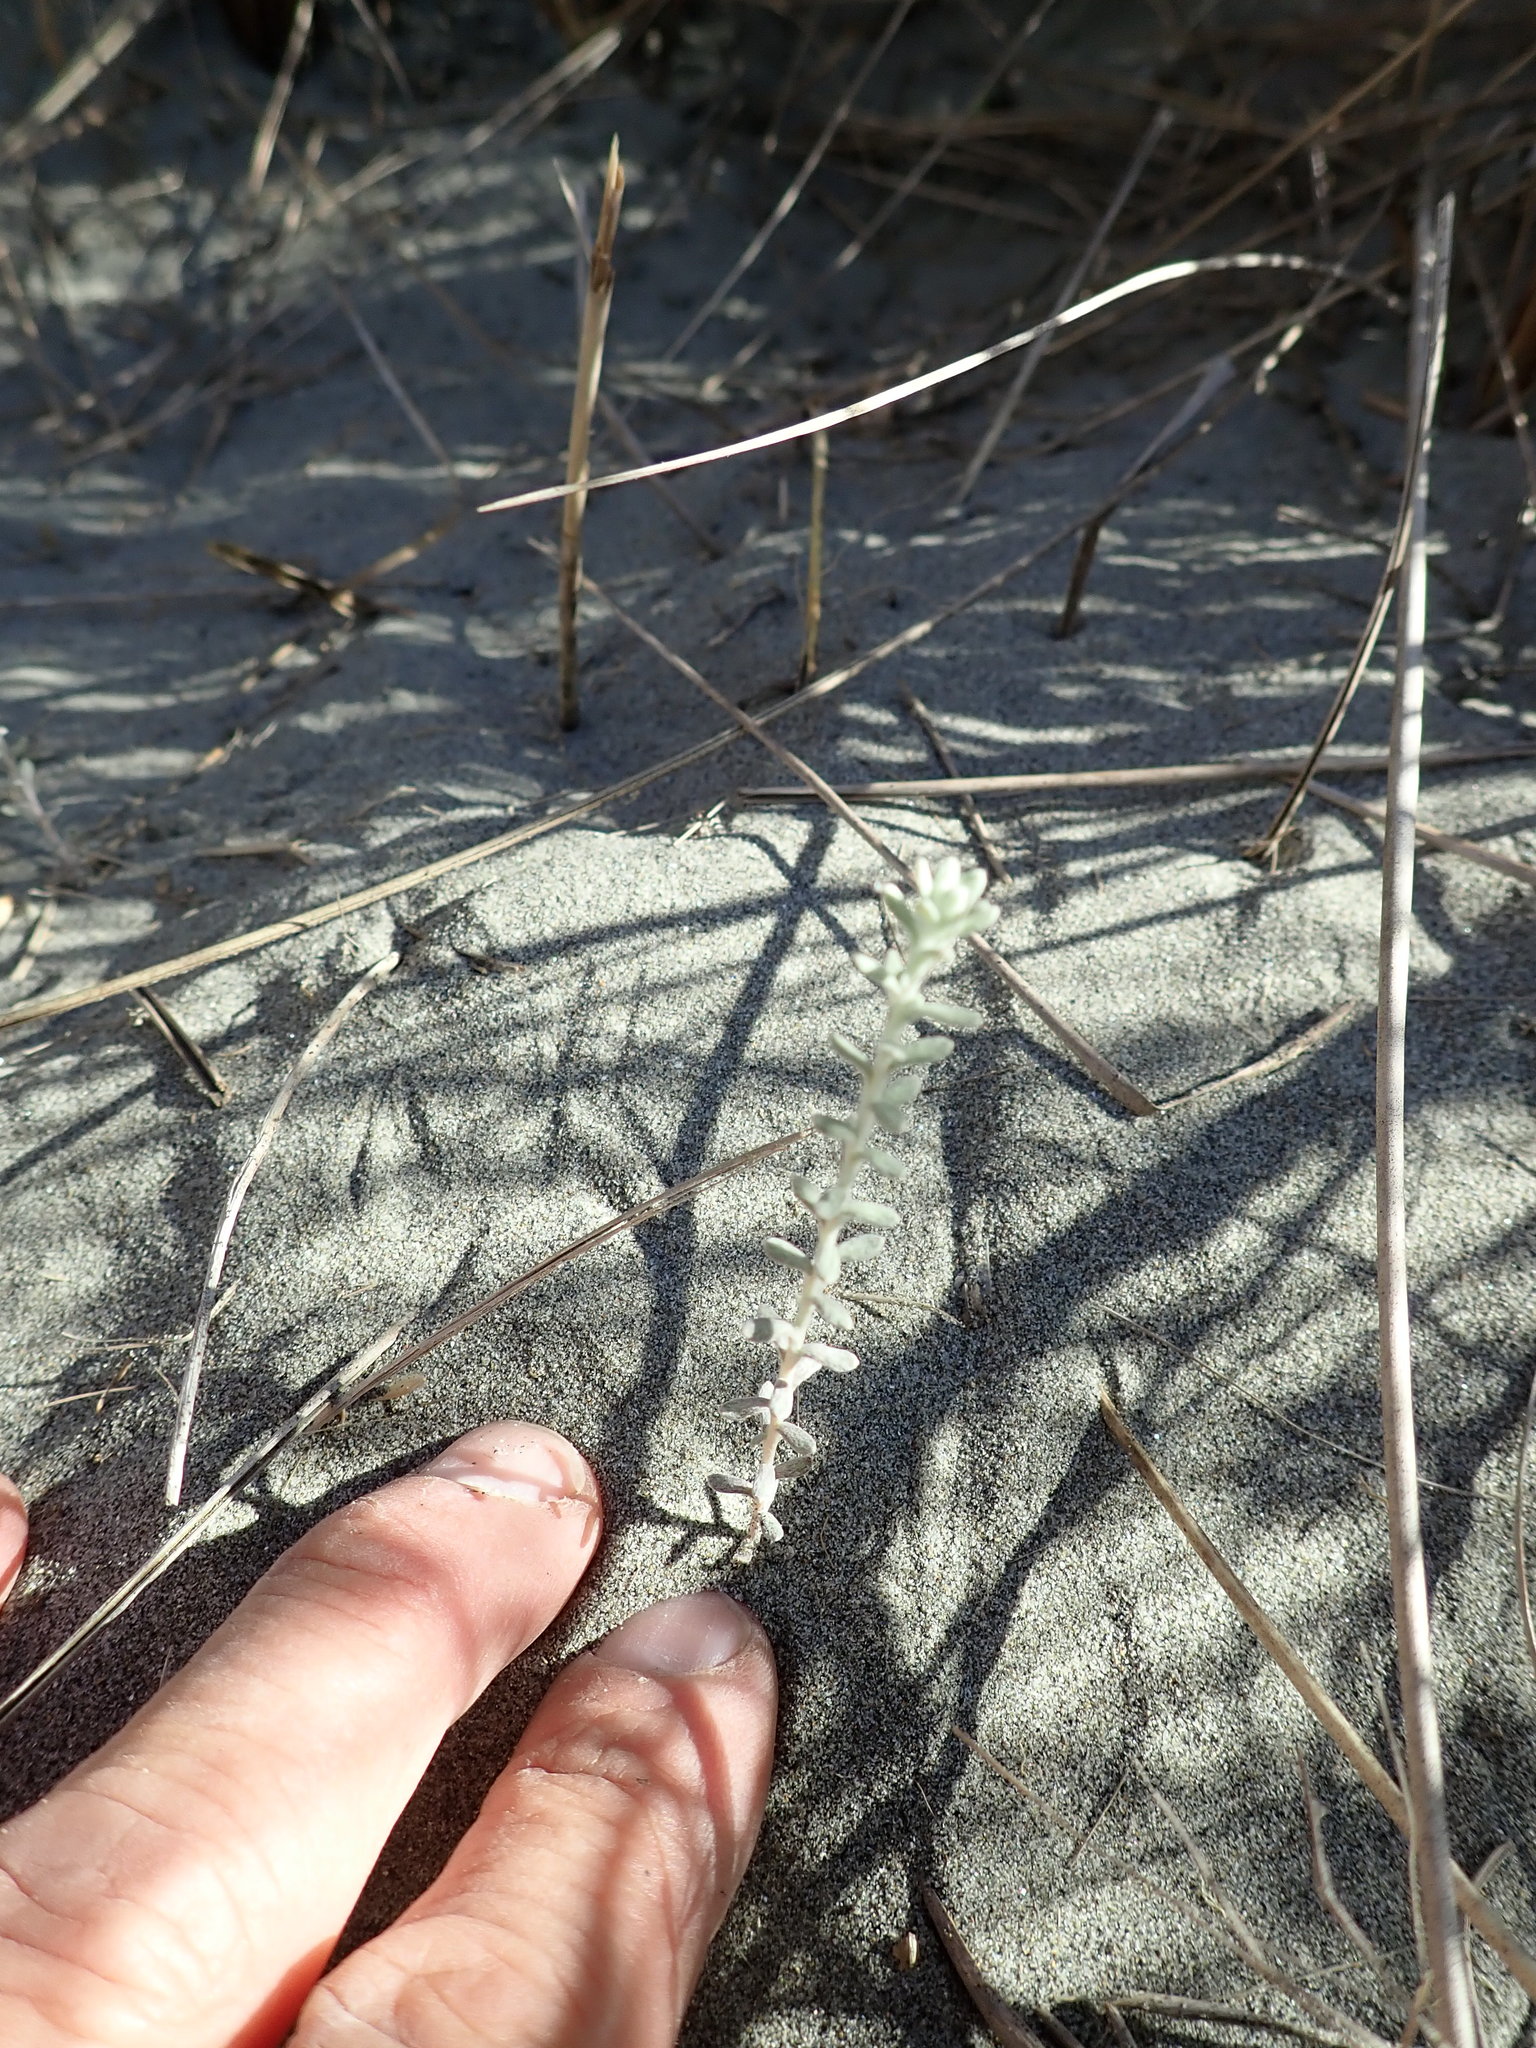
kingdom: Plantae
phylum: Tracheophyta
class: Magnoliopsida
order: Asterales
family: Asteraceae
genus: Ozothamnus
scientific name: Ozothamnus leptophyllus
